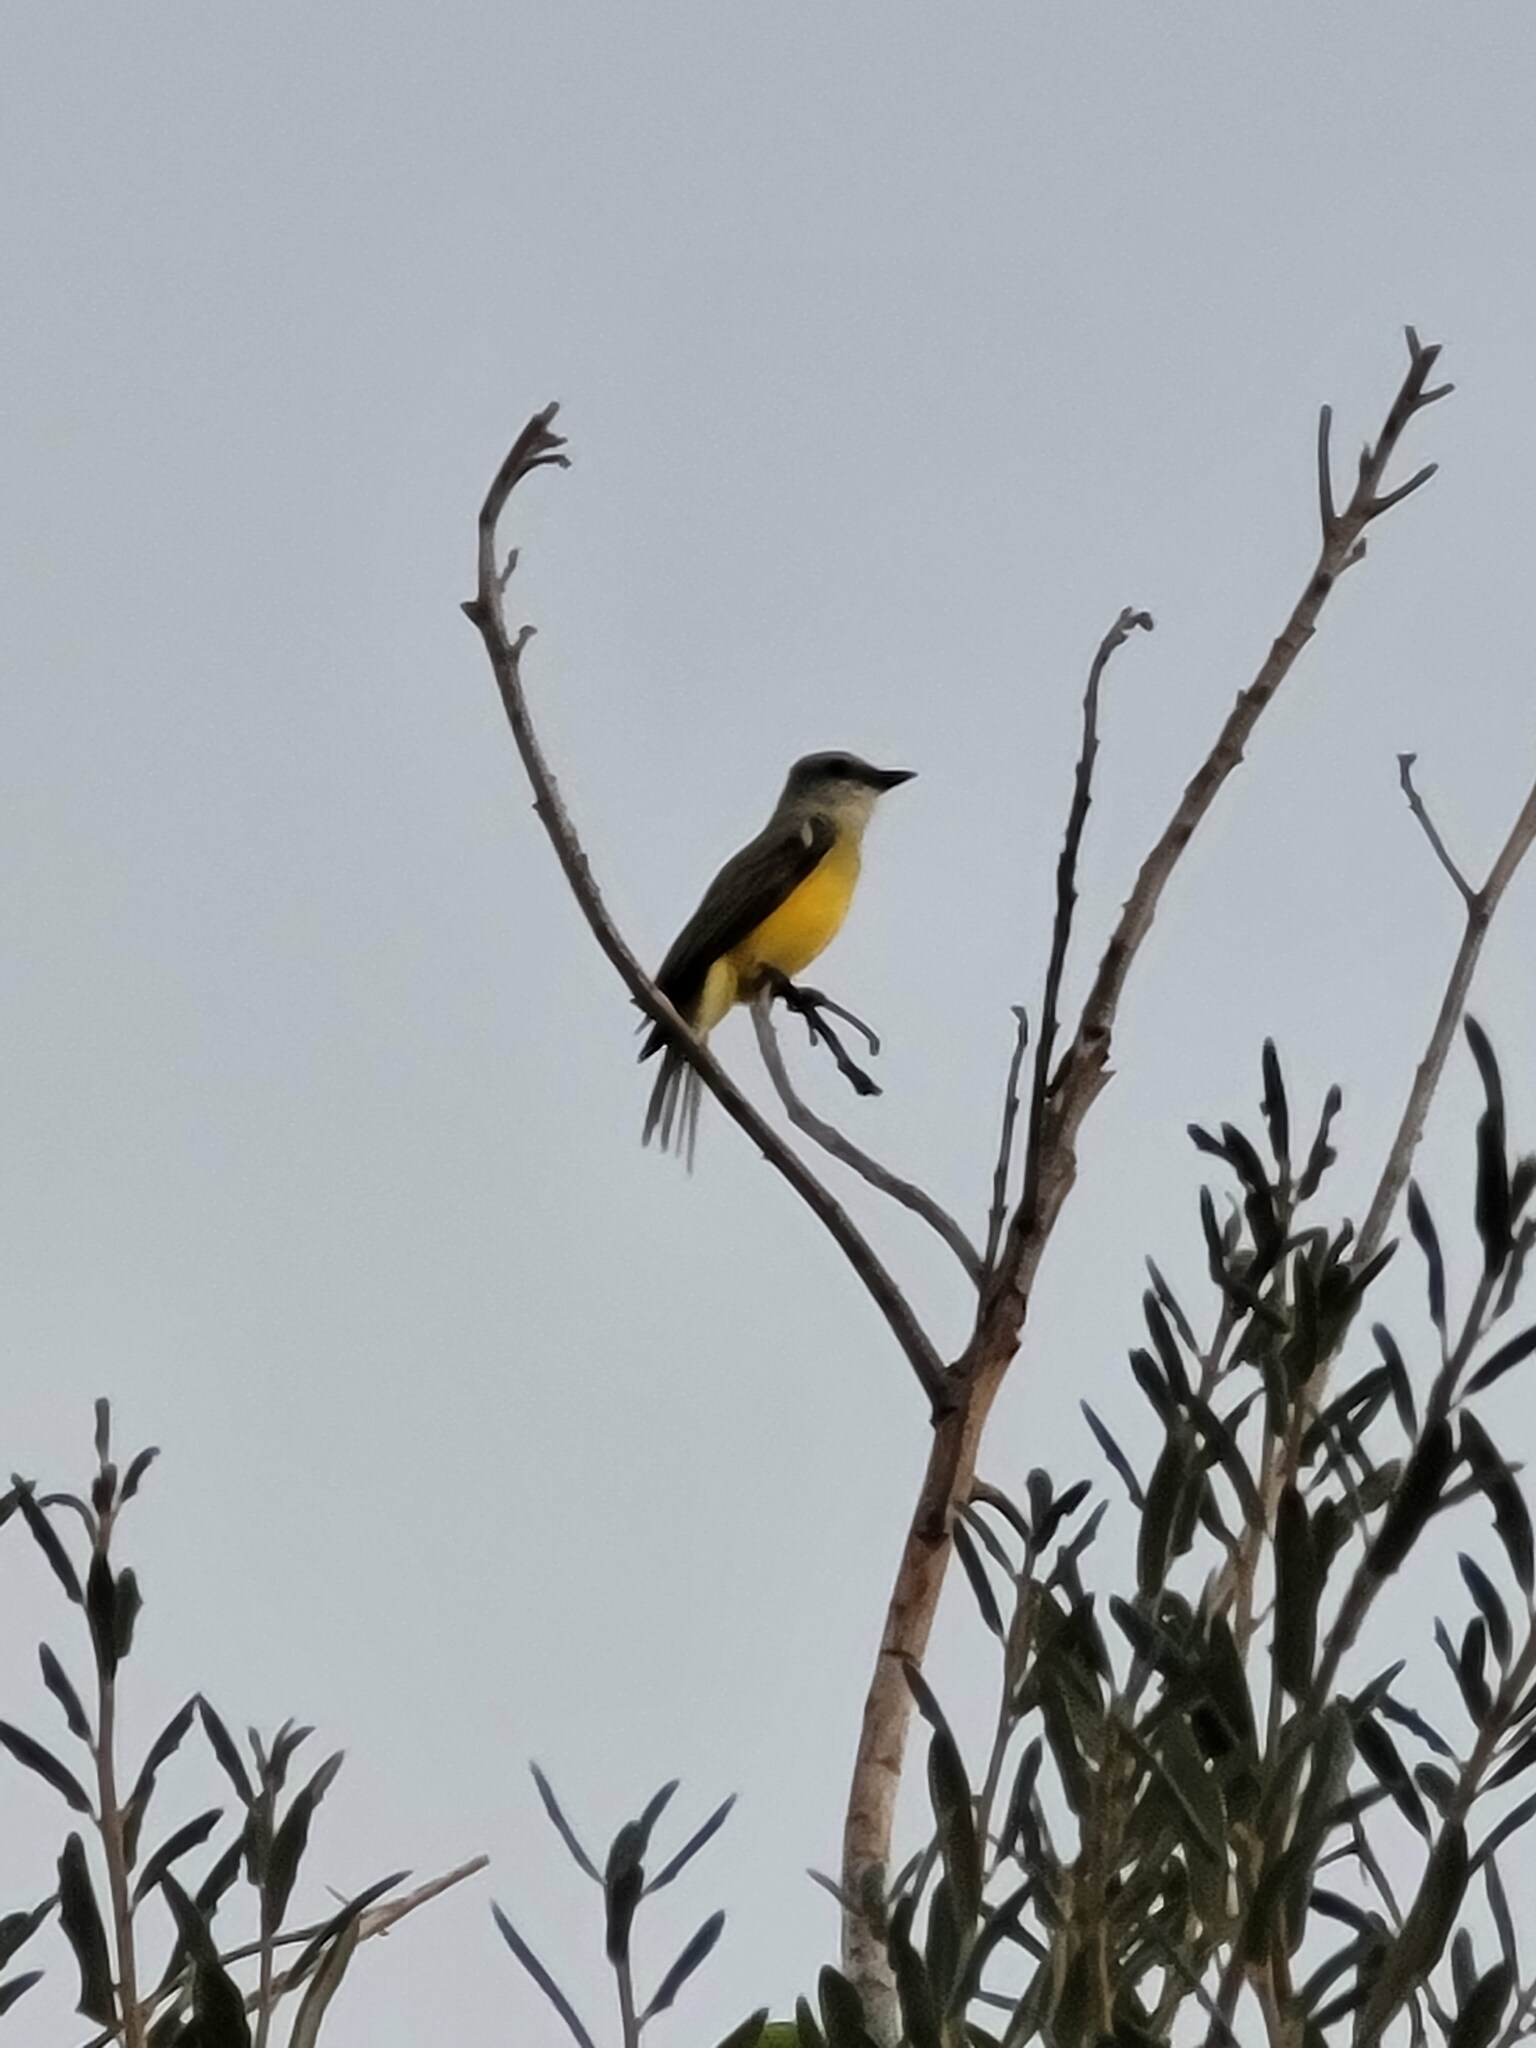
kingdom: Animalia
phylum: Chordata
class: Aves
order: Passeriformes
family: Tyrannidae
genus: Tyrannus
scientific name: Tyrannus couchii
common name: Couch's kingbird
